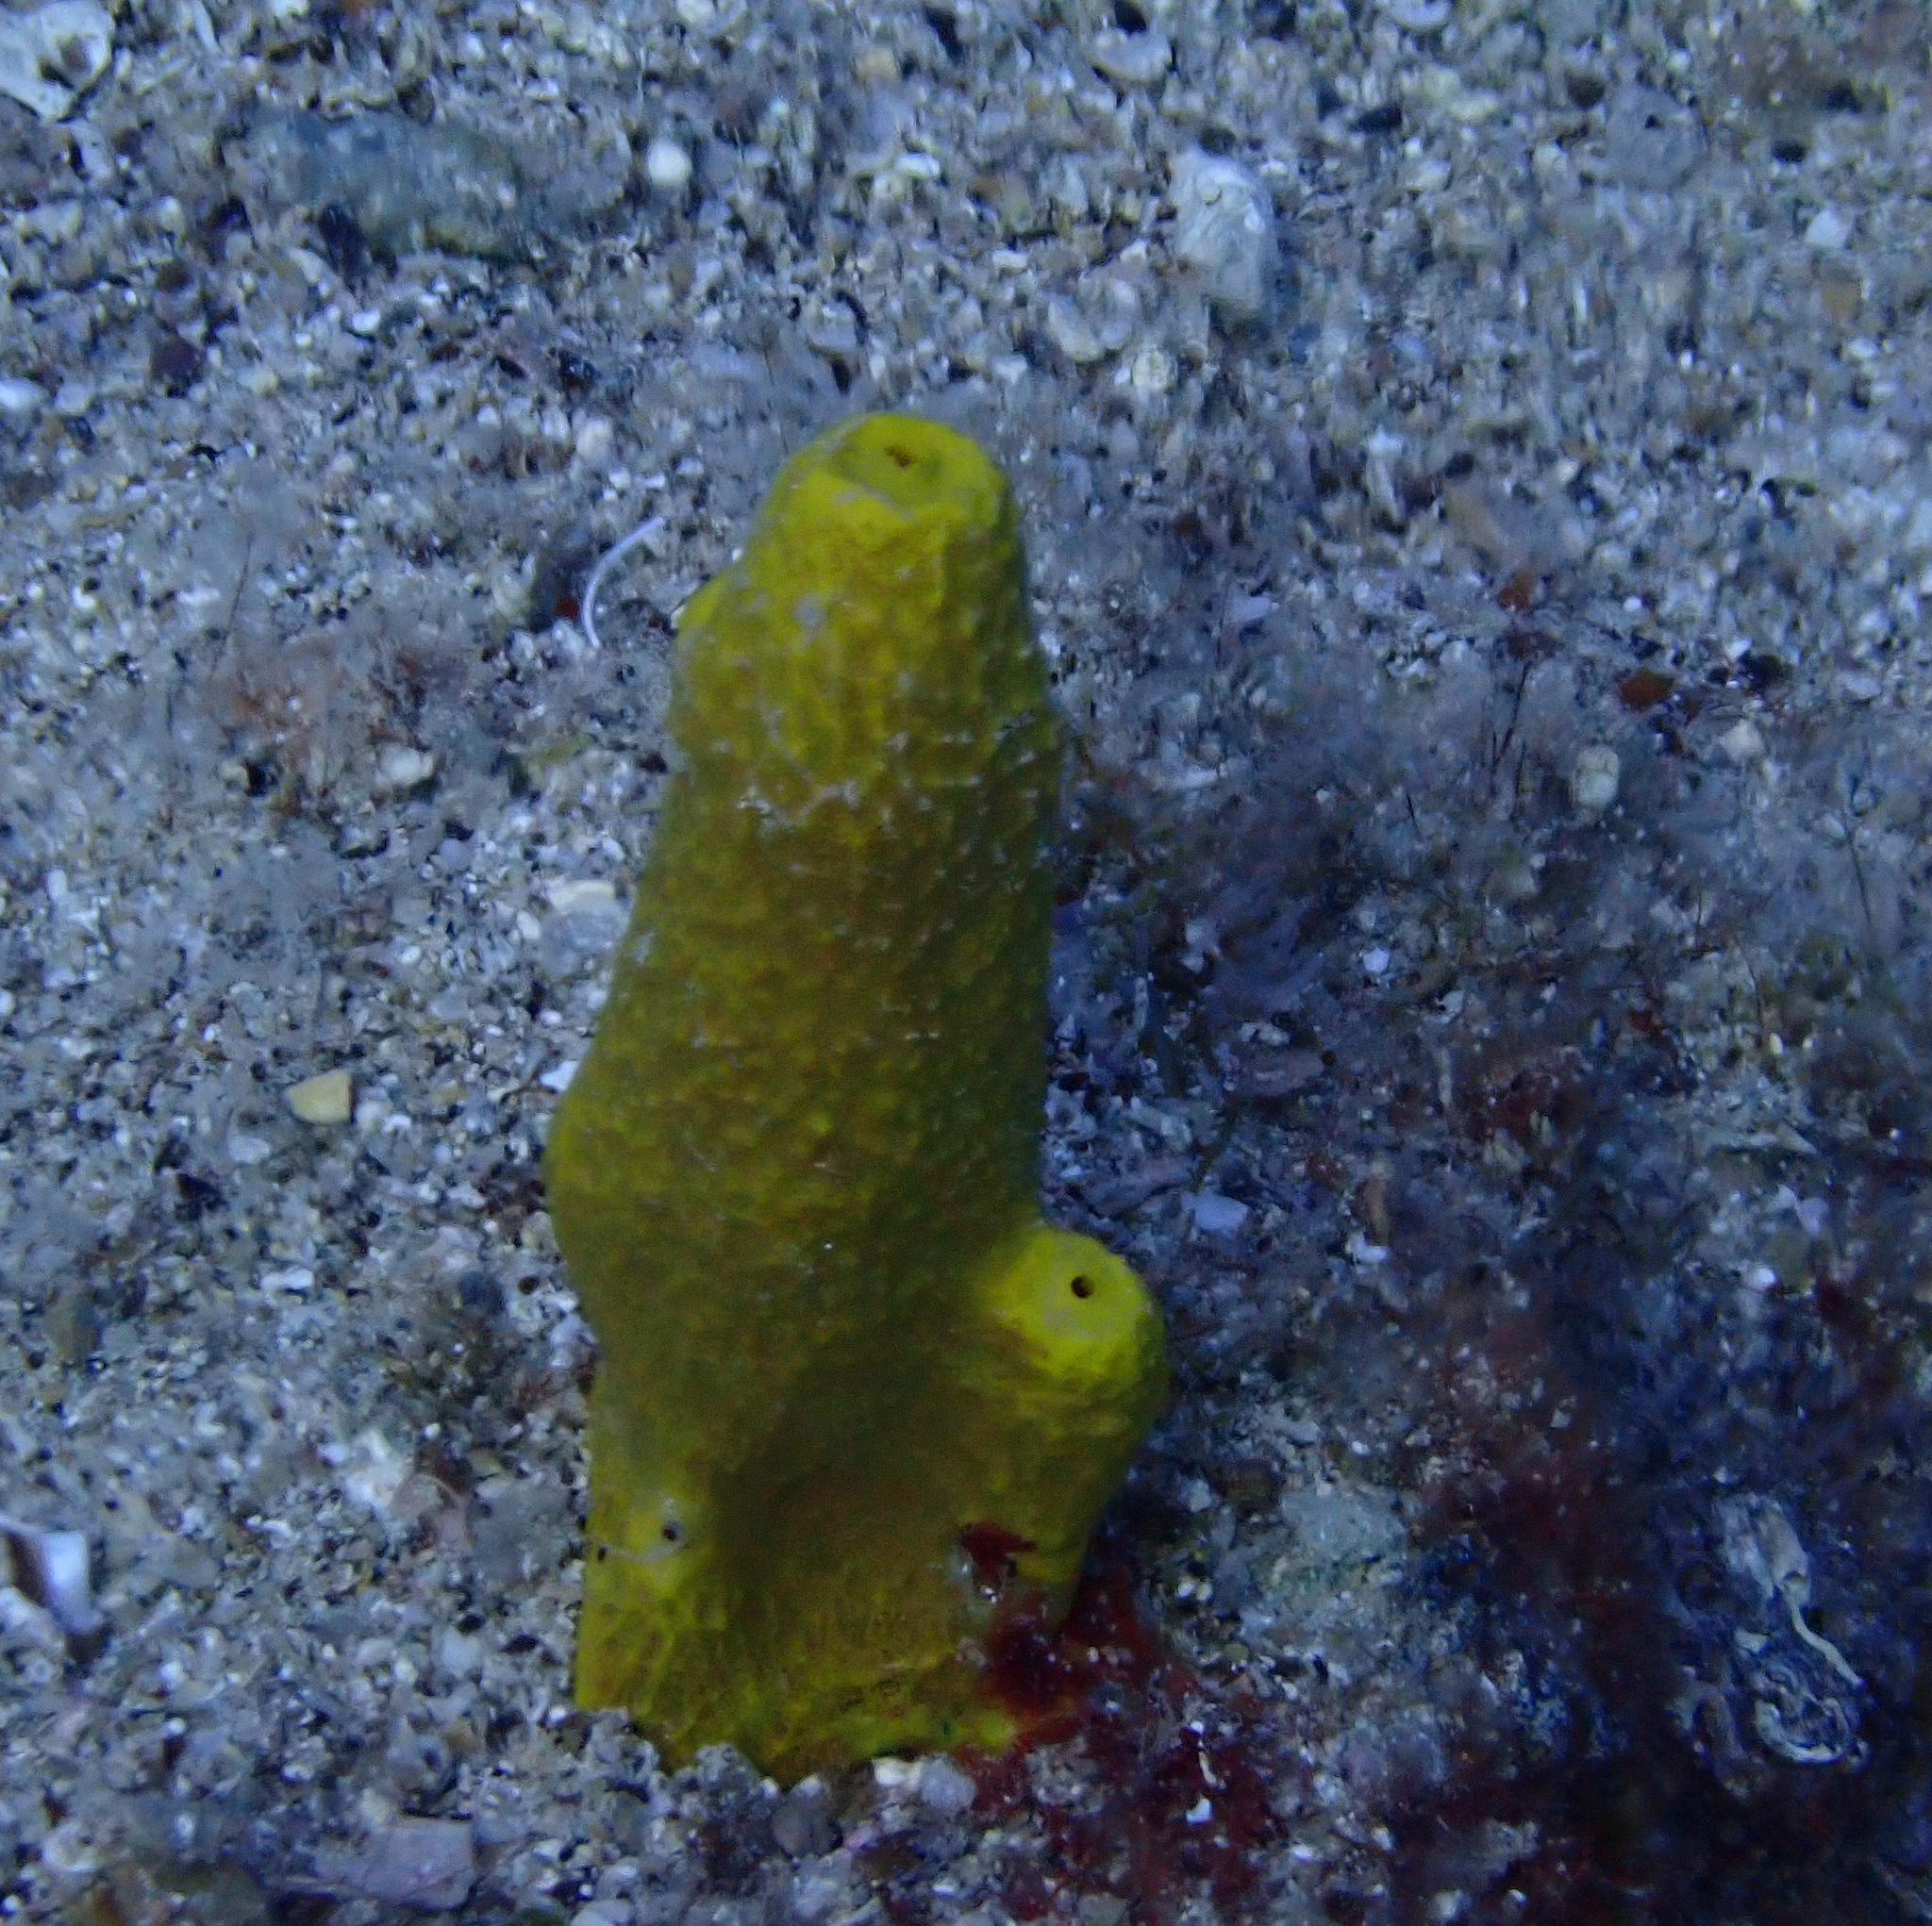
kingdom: Animalia
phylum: Porifera
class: Demospongiae
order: Verongiida
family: Aplysinidae
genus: Aplysina
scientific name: Aplysina aerophoba
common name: Aureate sponge
